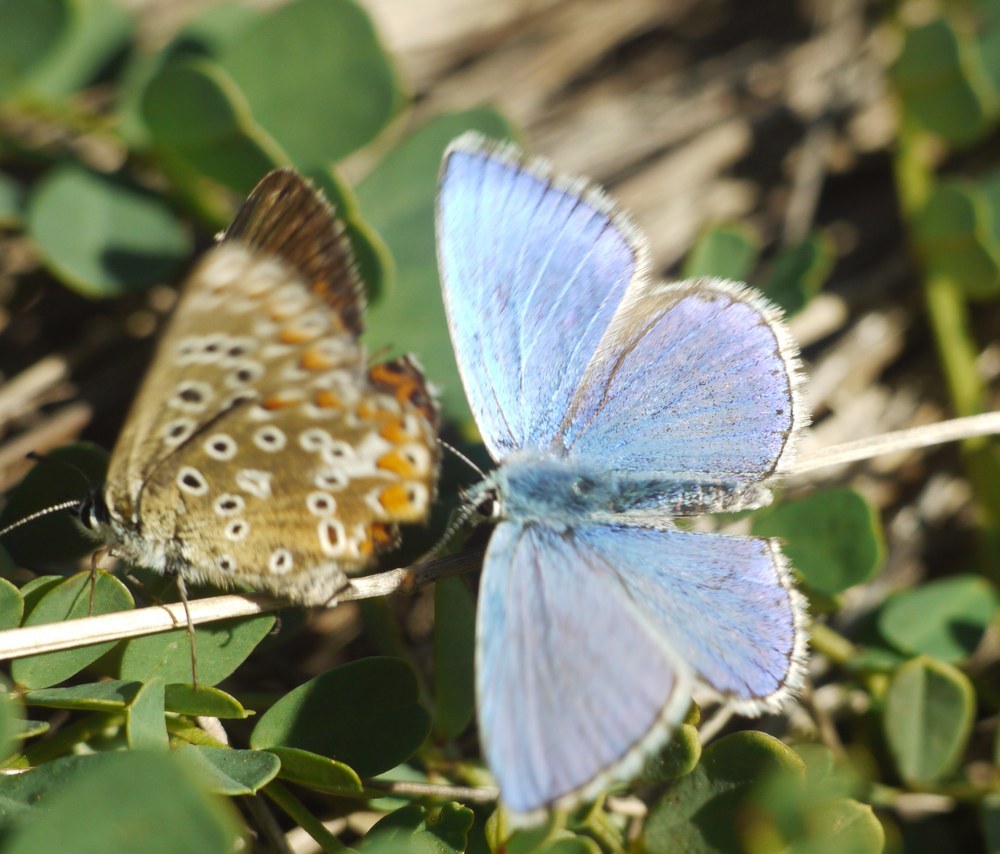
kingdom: Animalia
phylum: Arthropoda
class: Insecta
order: Lepidoptera
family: Lycaenidae
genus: Lysandra
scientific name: Lysandra bellargus
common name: Adonis blue
